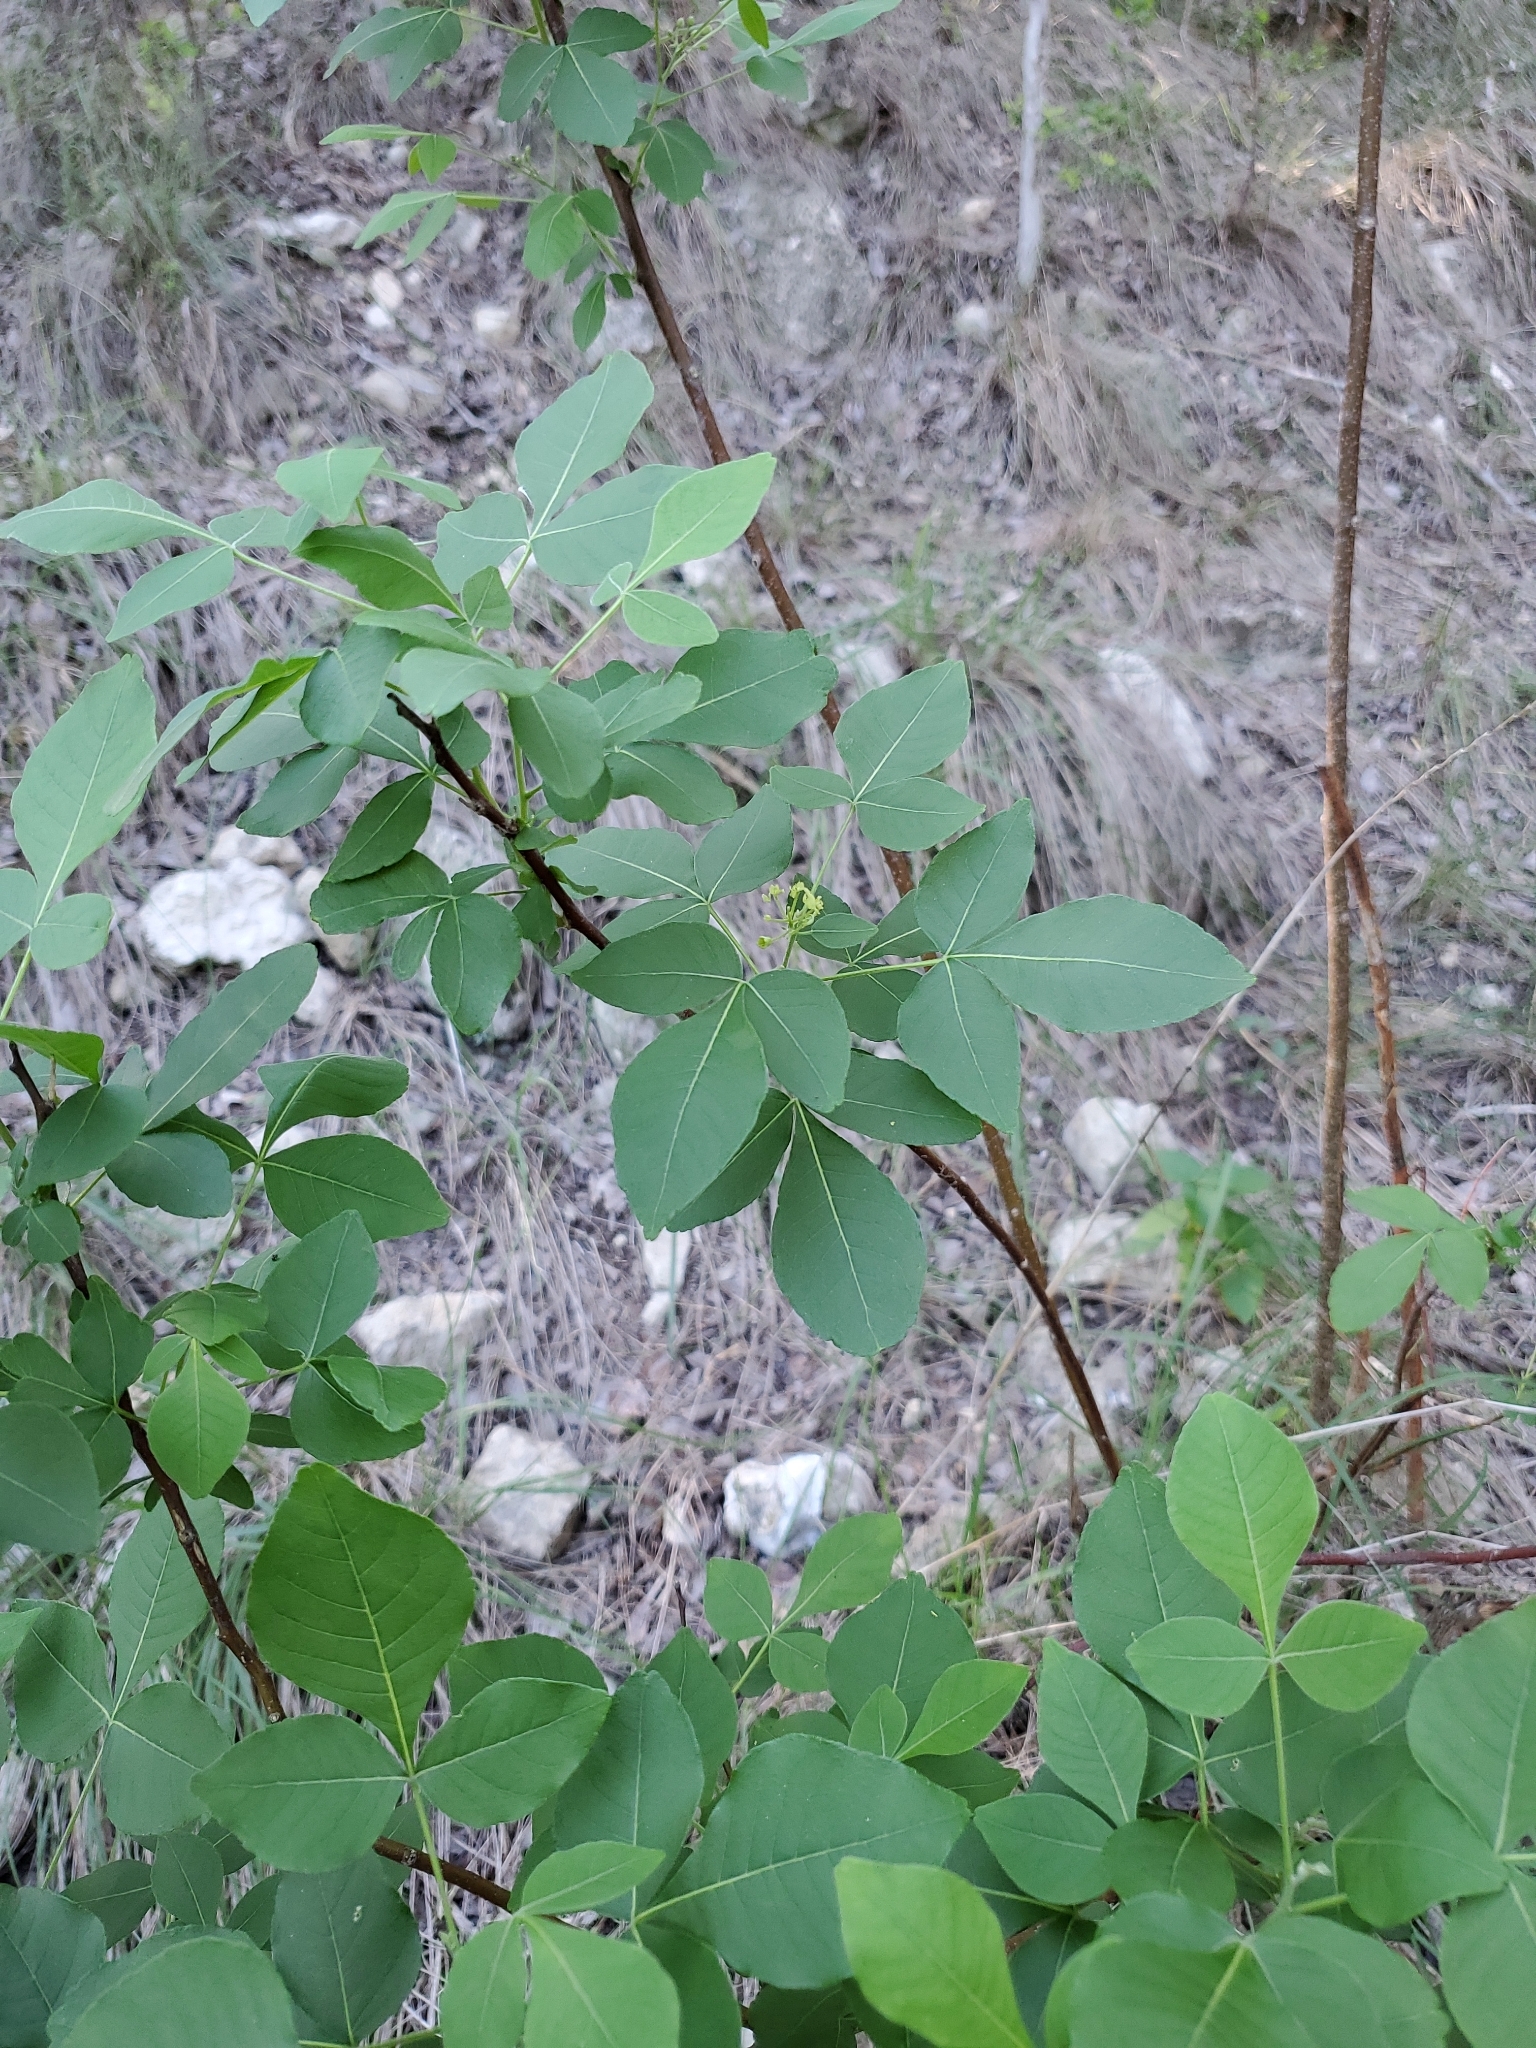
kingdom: Plantae
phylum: Tracheophyta
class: Magnoliopsida
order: Sapindales
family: Rutaceae
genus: Ptelea
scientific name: Ptelea trifoliata
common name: Common hop-tree
